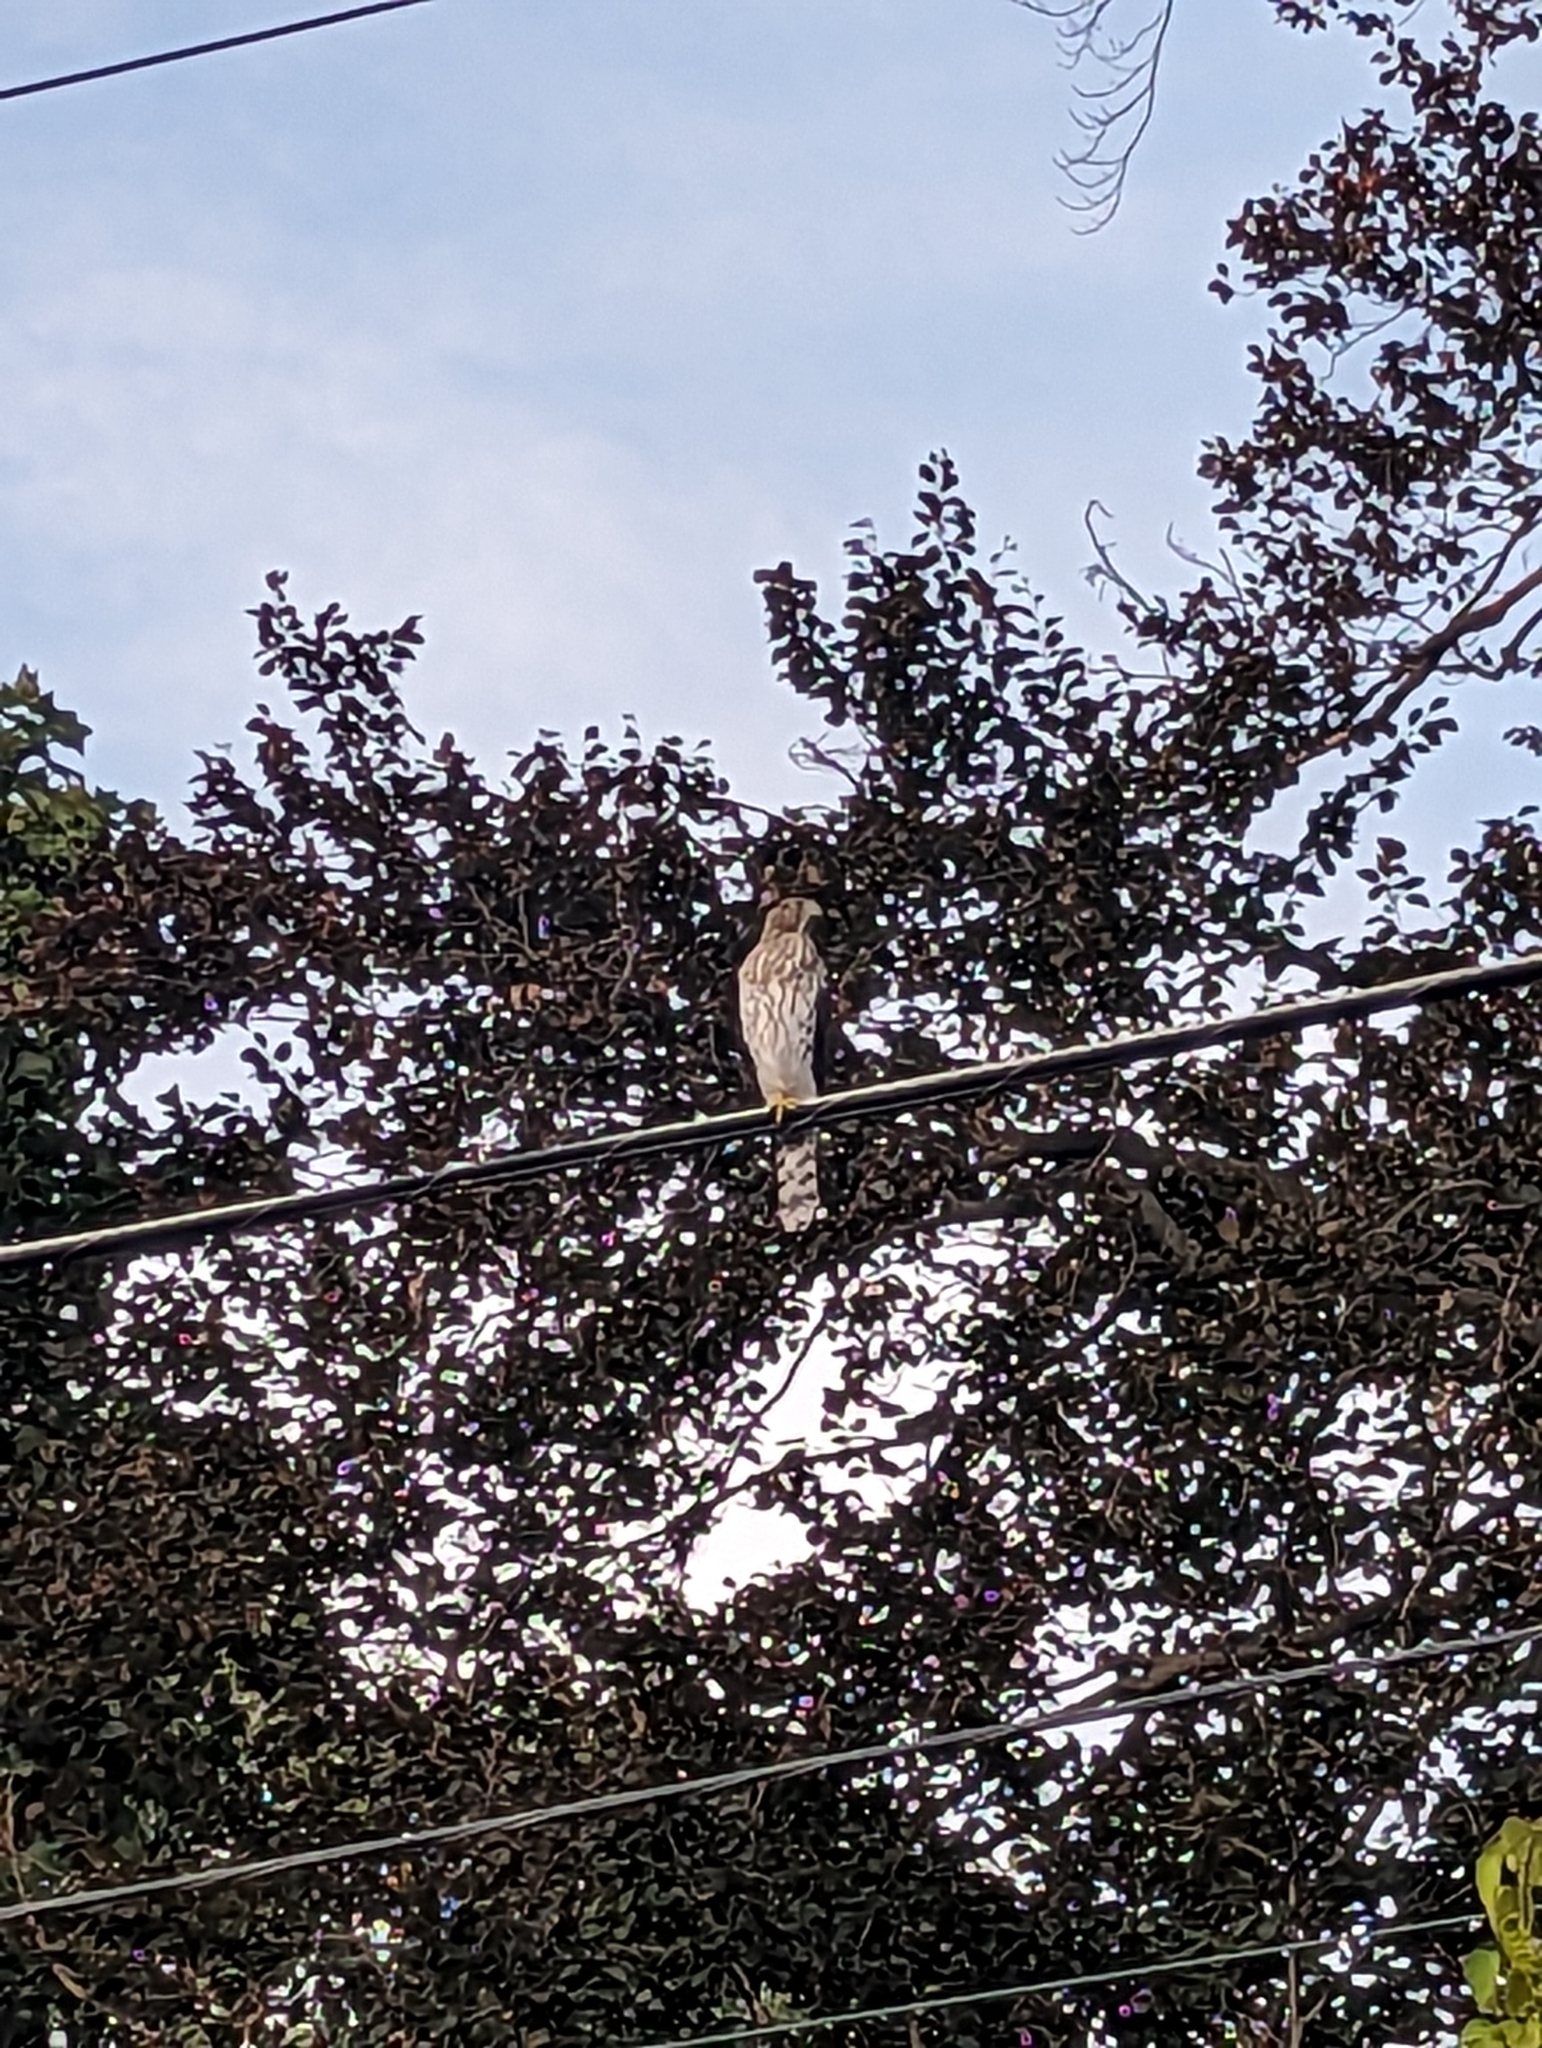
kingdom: Animalia
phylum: Chordata
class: Aves
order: Accipitriformes
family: Accipitridae
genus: Accipiter
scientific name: Accipiter cooperii
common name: Cooper's hawk
